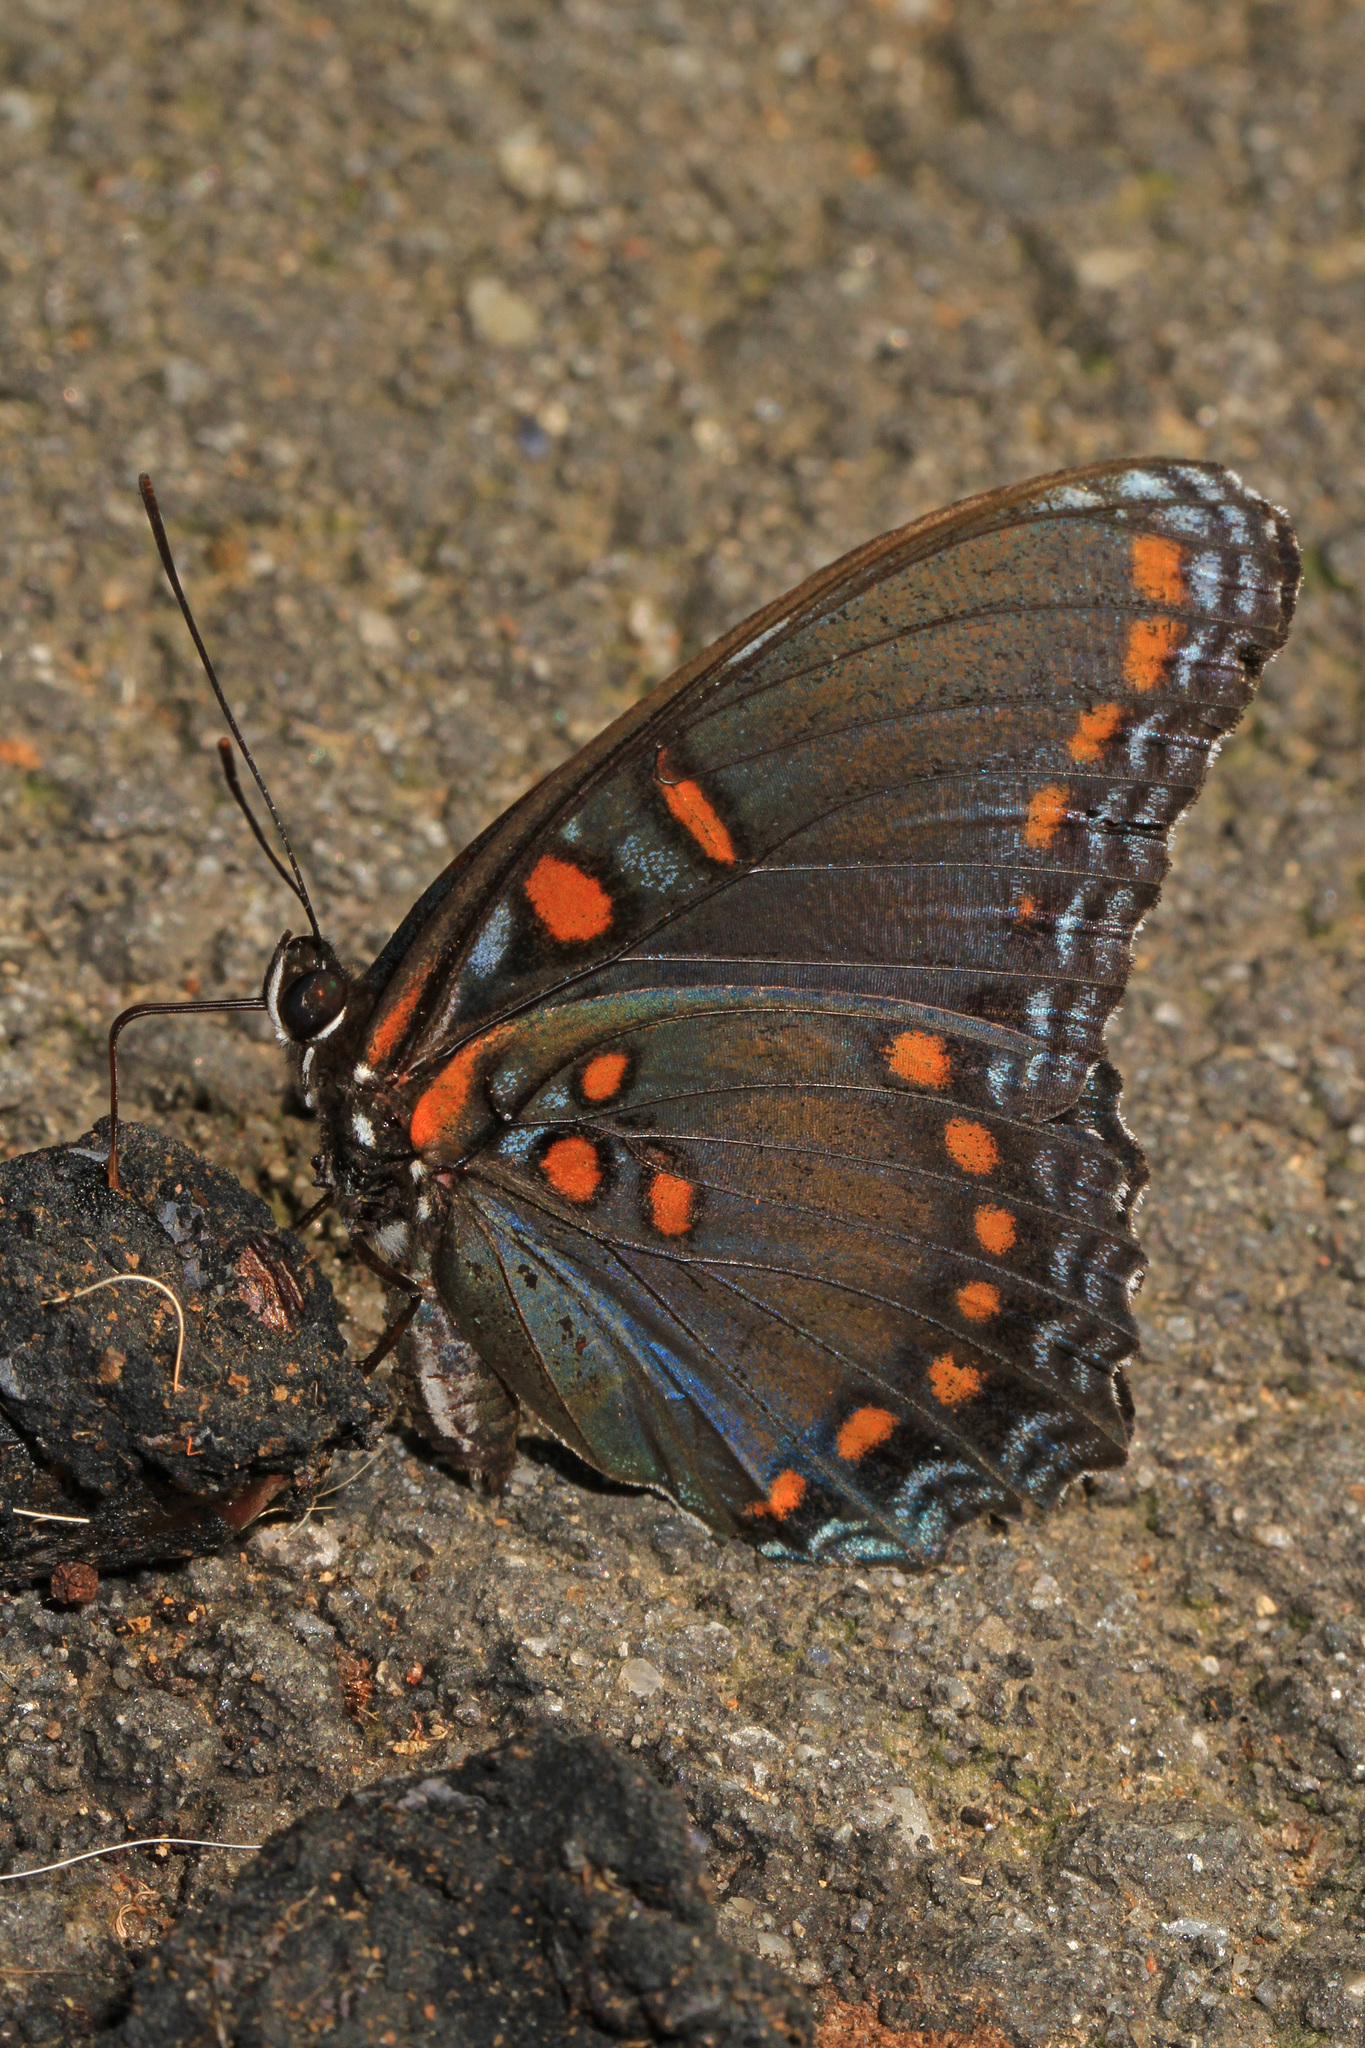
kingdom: Animalia
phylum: Arthropoda
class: Insecta
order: Lepidoptera
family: Nymphalidae
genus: Limenitis
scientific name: Limenitis astyanax
